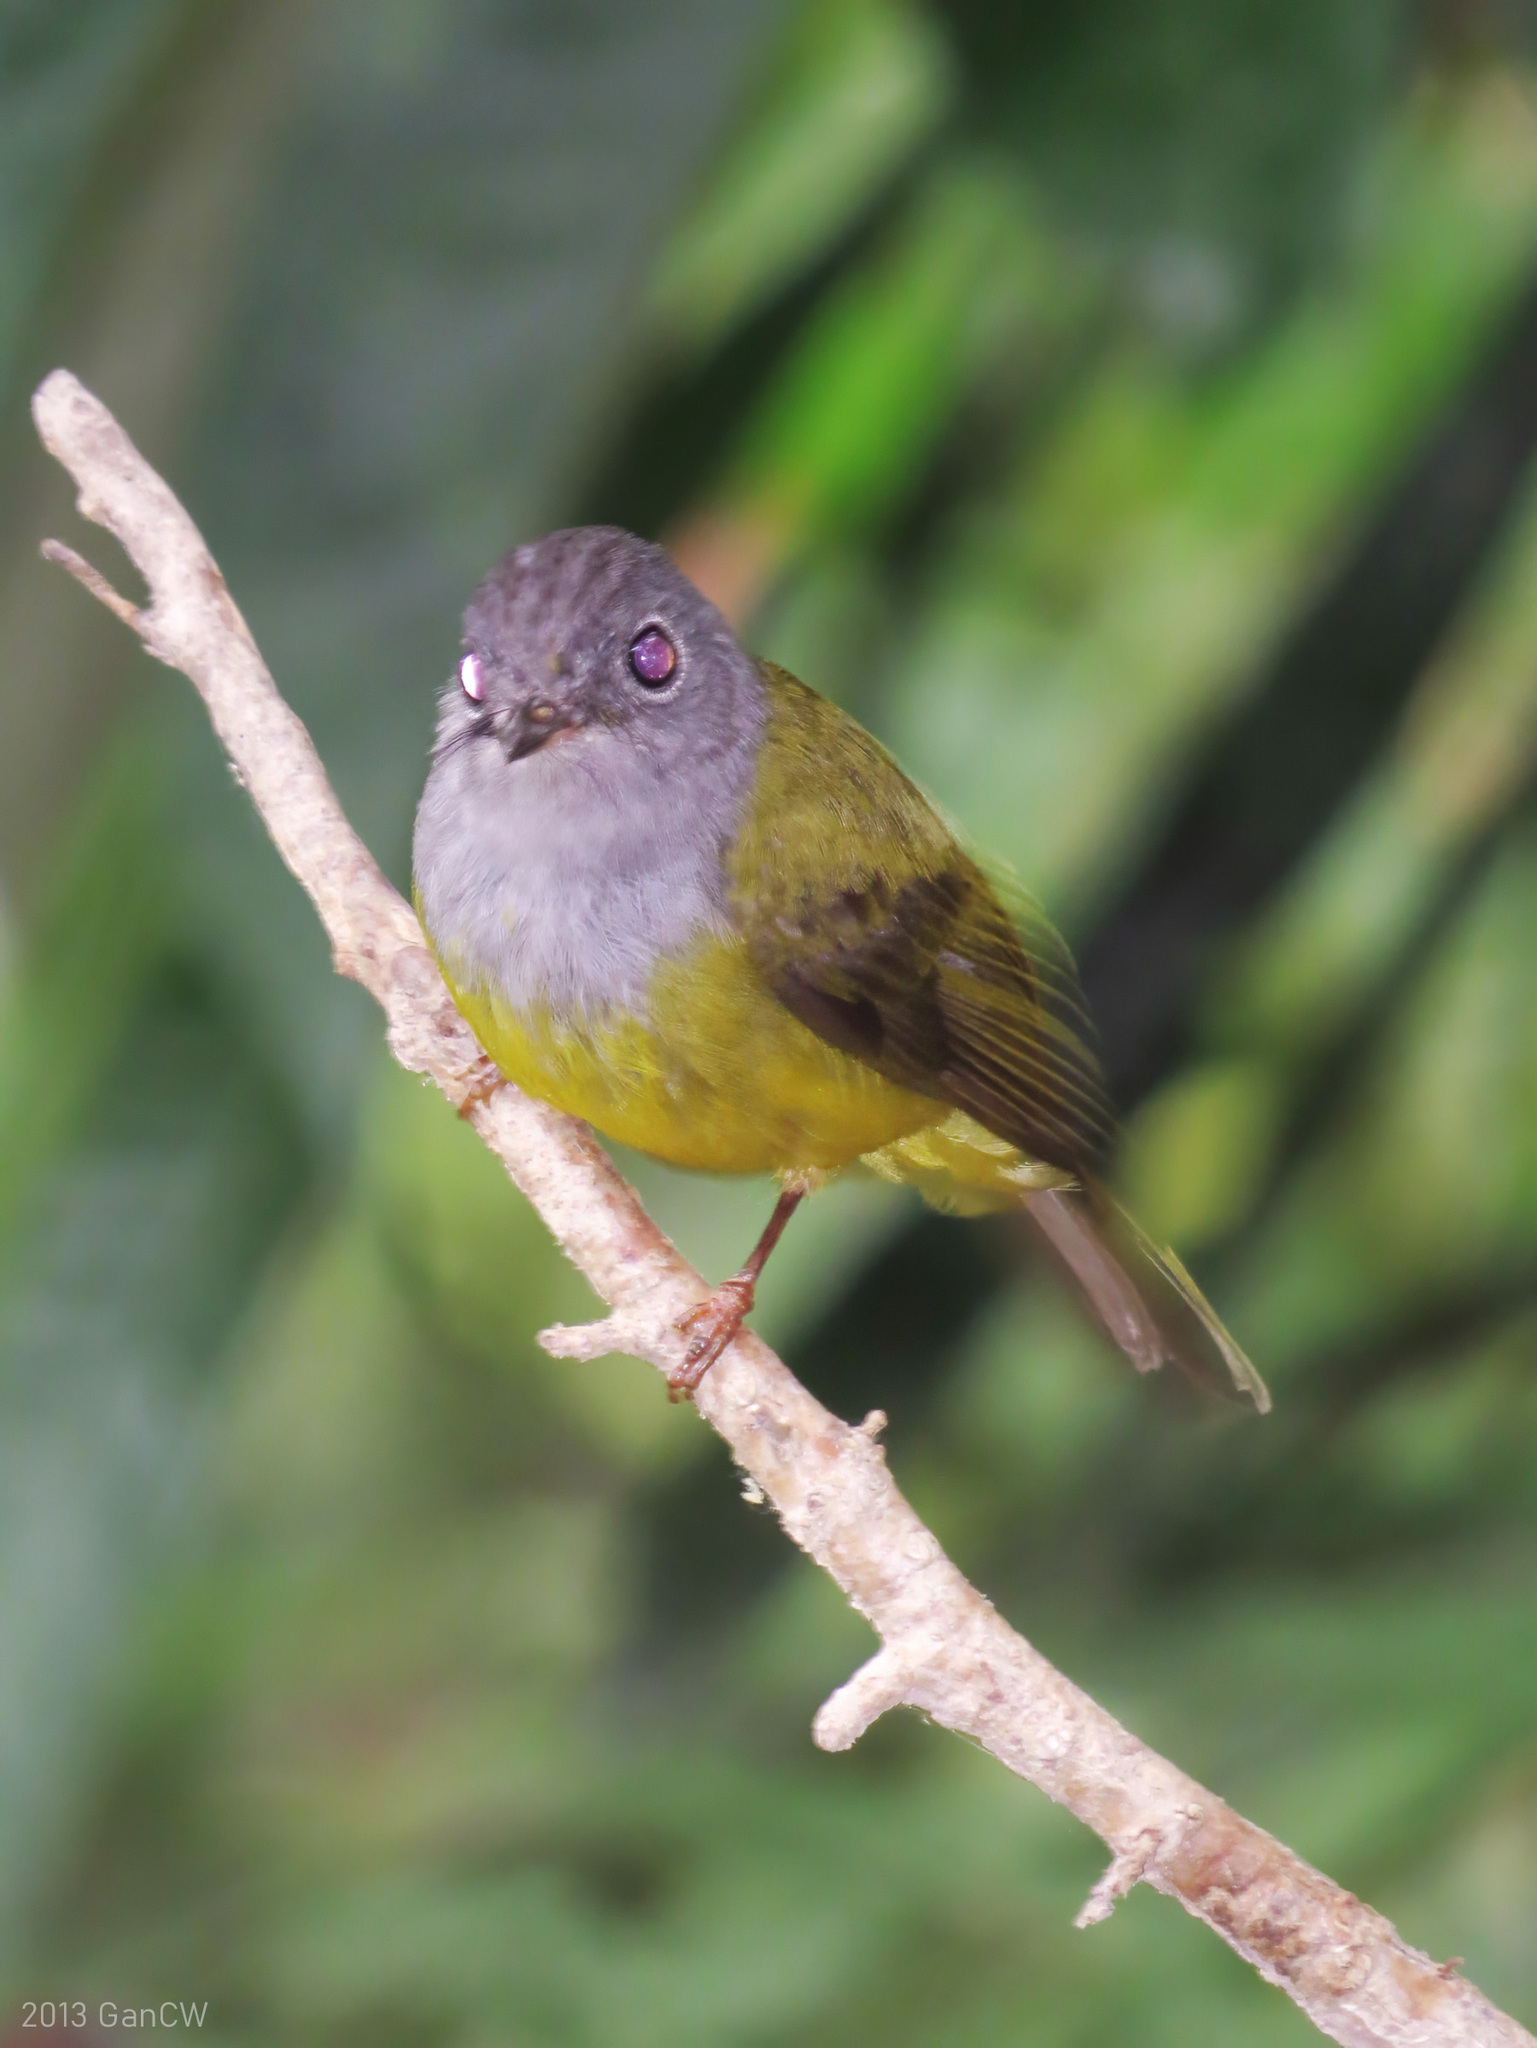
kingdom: Animalia
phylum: Chordata
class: Aves
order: Passeriformes
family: Stenostiridae
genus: Culicicapa
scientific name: Culicicapa ceylonensis
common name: Grey-headed canary-flycatcher
